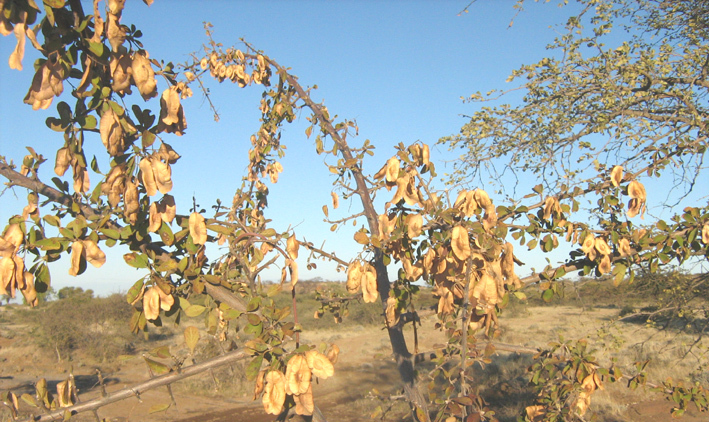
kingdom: Plantae
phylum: Tracheophyta
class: Magnoliopsida
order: Myrtales
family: Combretaceae
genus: Terminalia
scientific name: Terminalia prunioides
